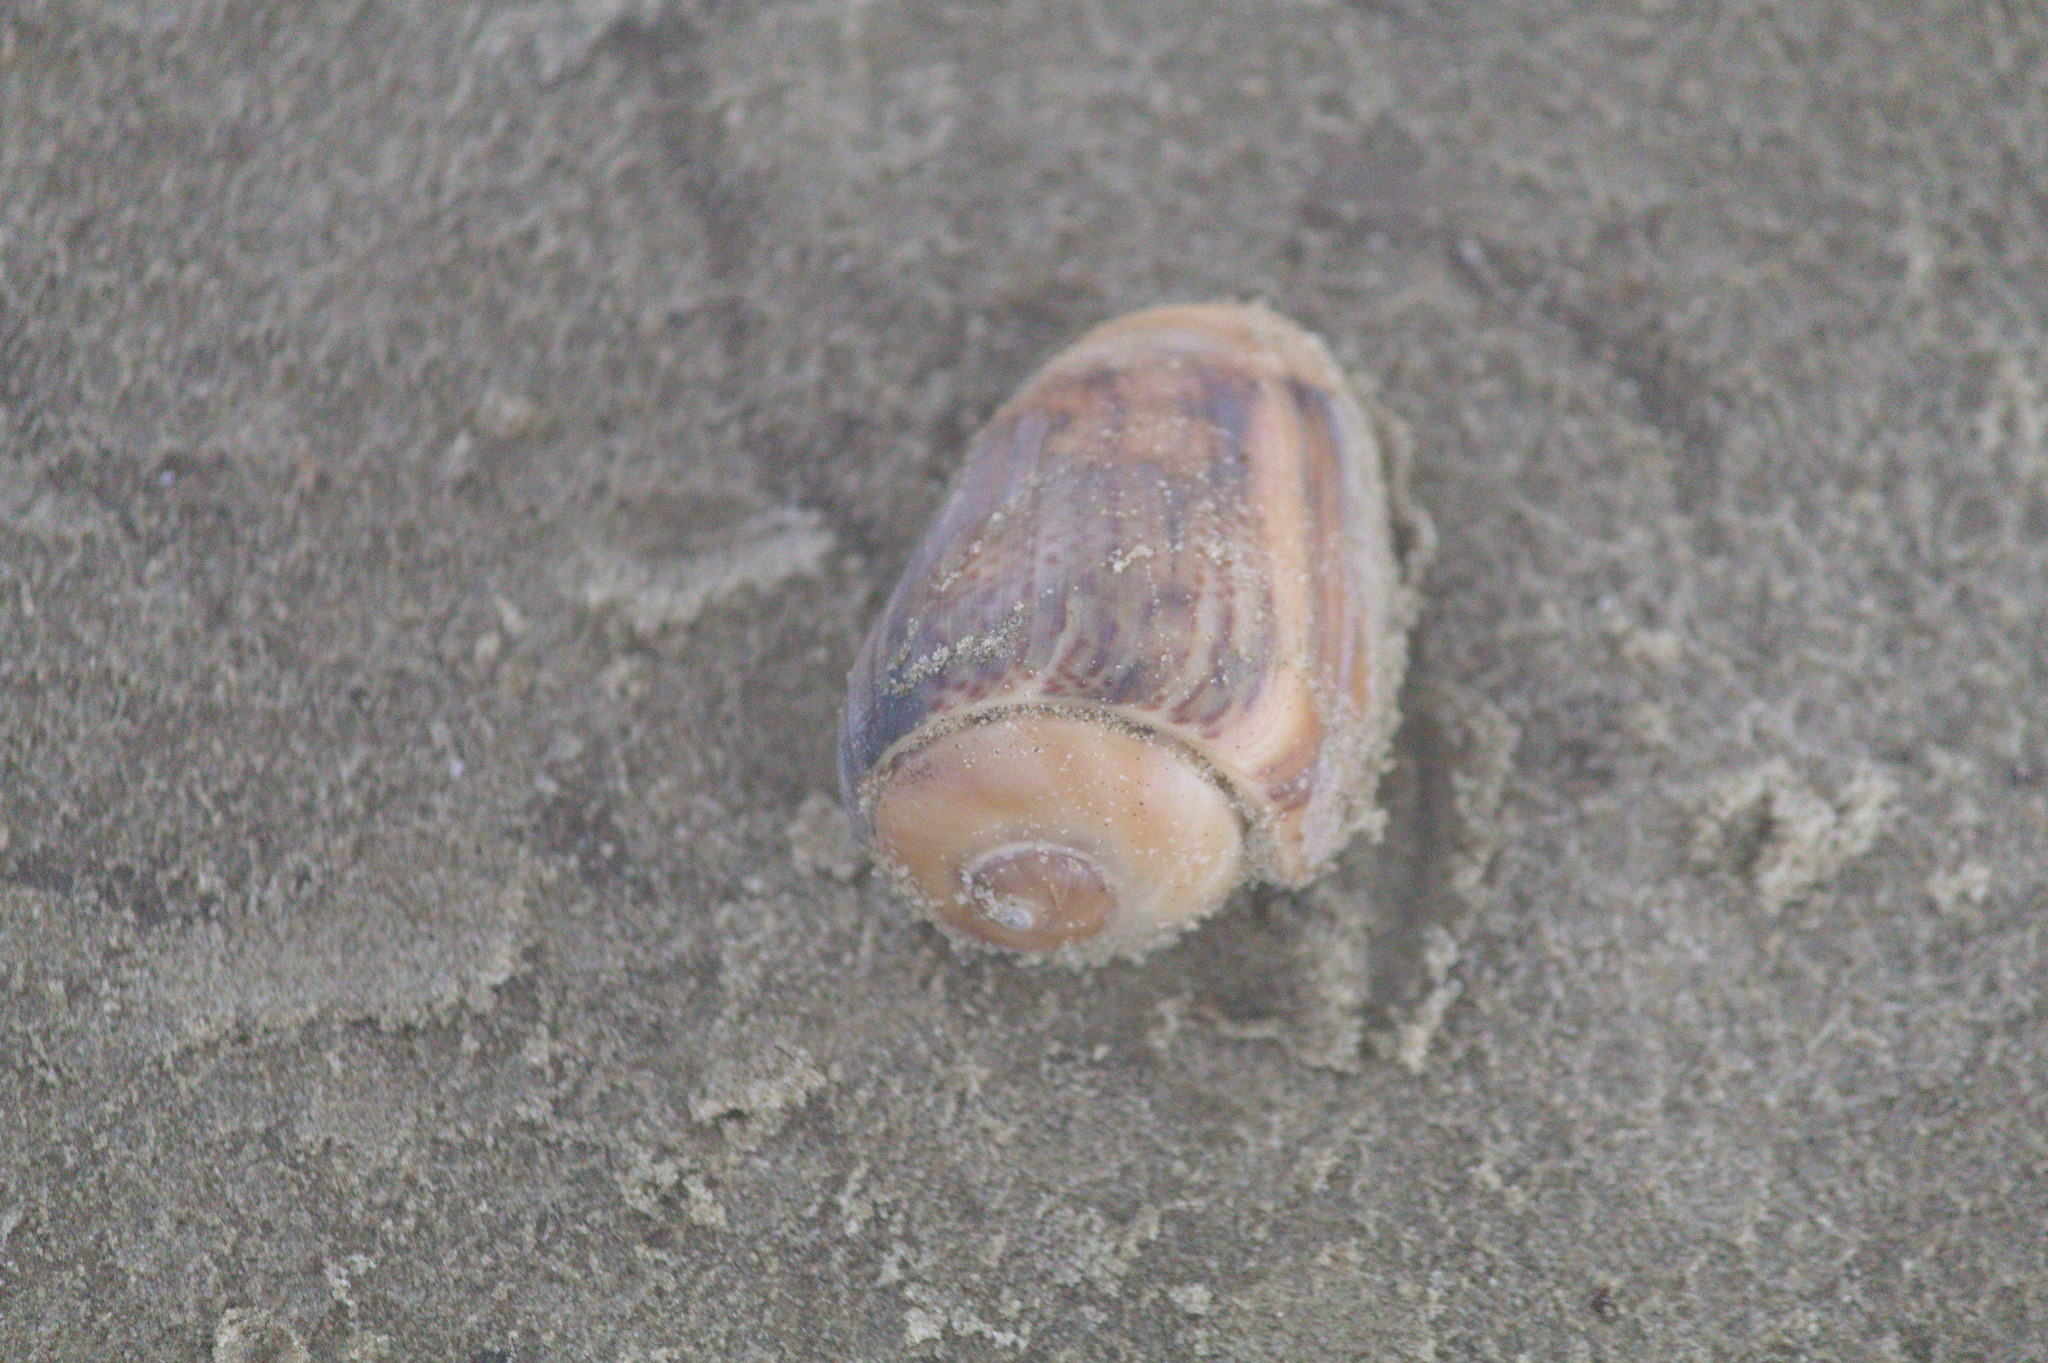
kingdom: Animalia
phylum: Mollusca
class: Gastropoda
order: Neogastropoda
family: Olividae
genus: Olivancillaria
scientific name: Olivancillaria urceus
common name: Bear ancilla
